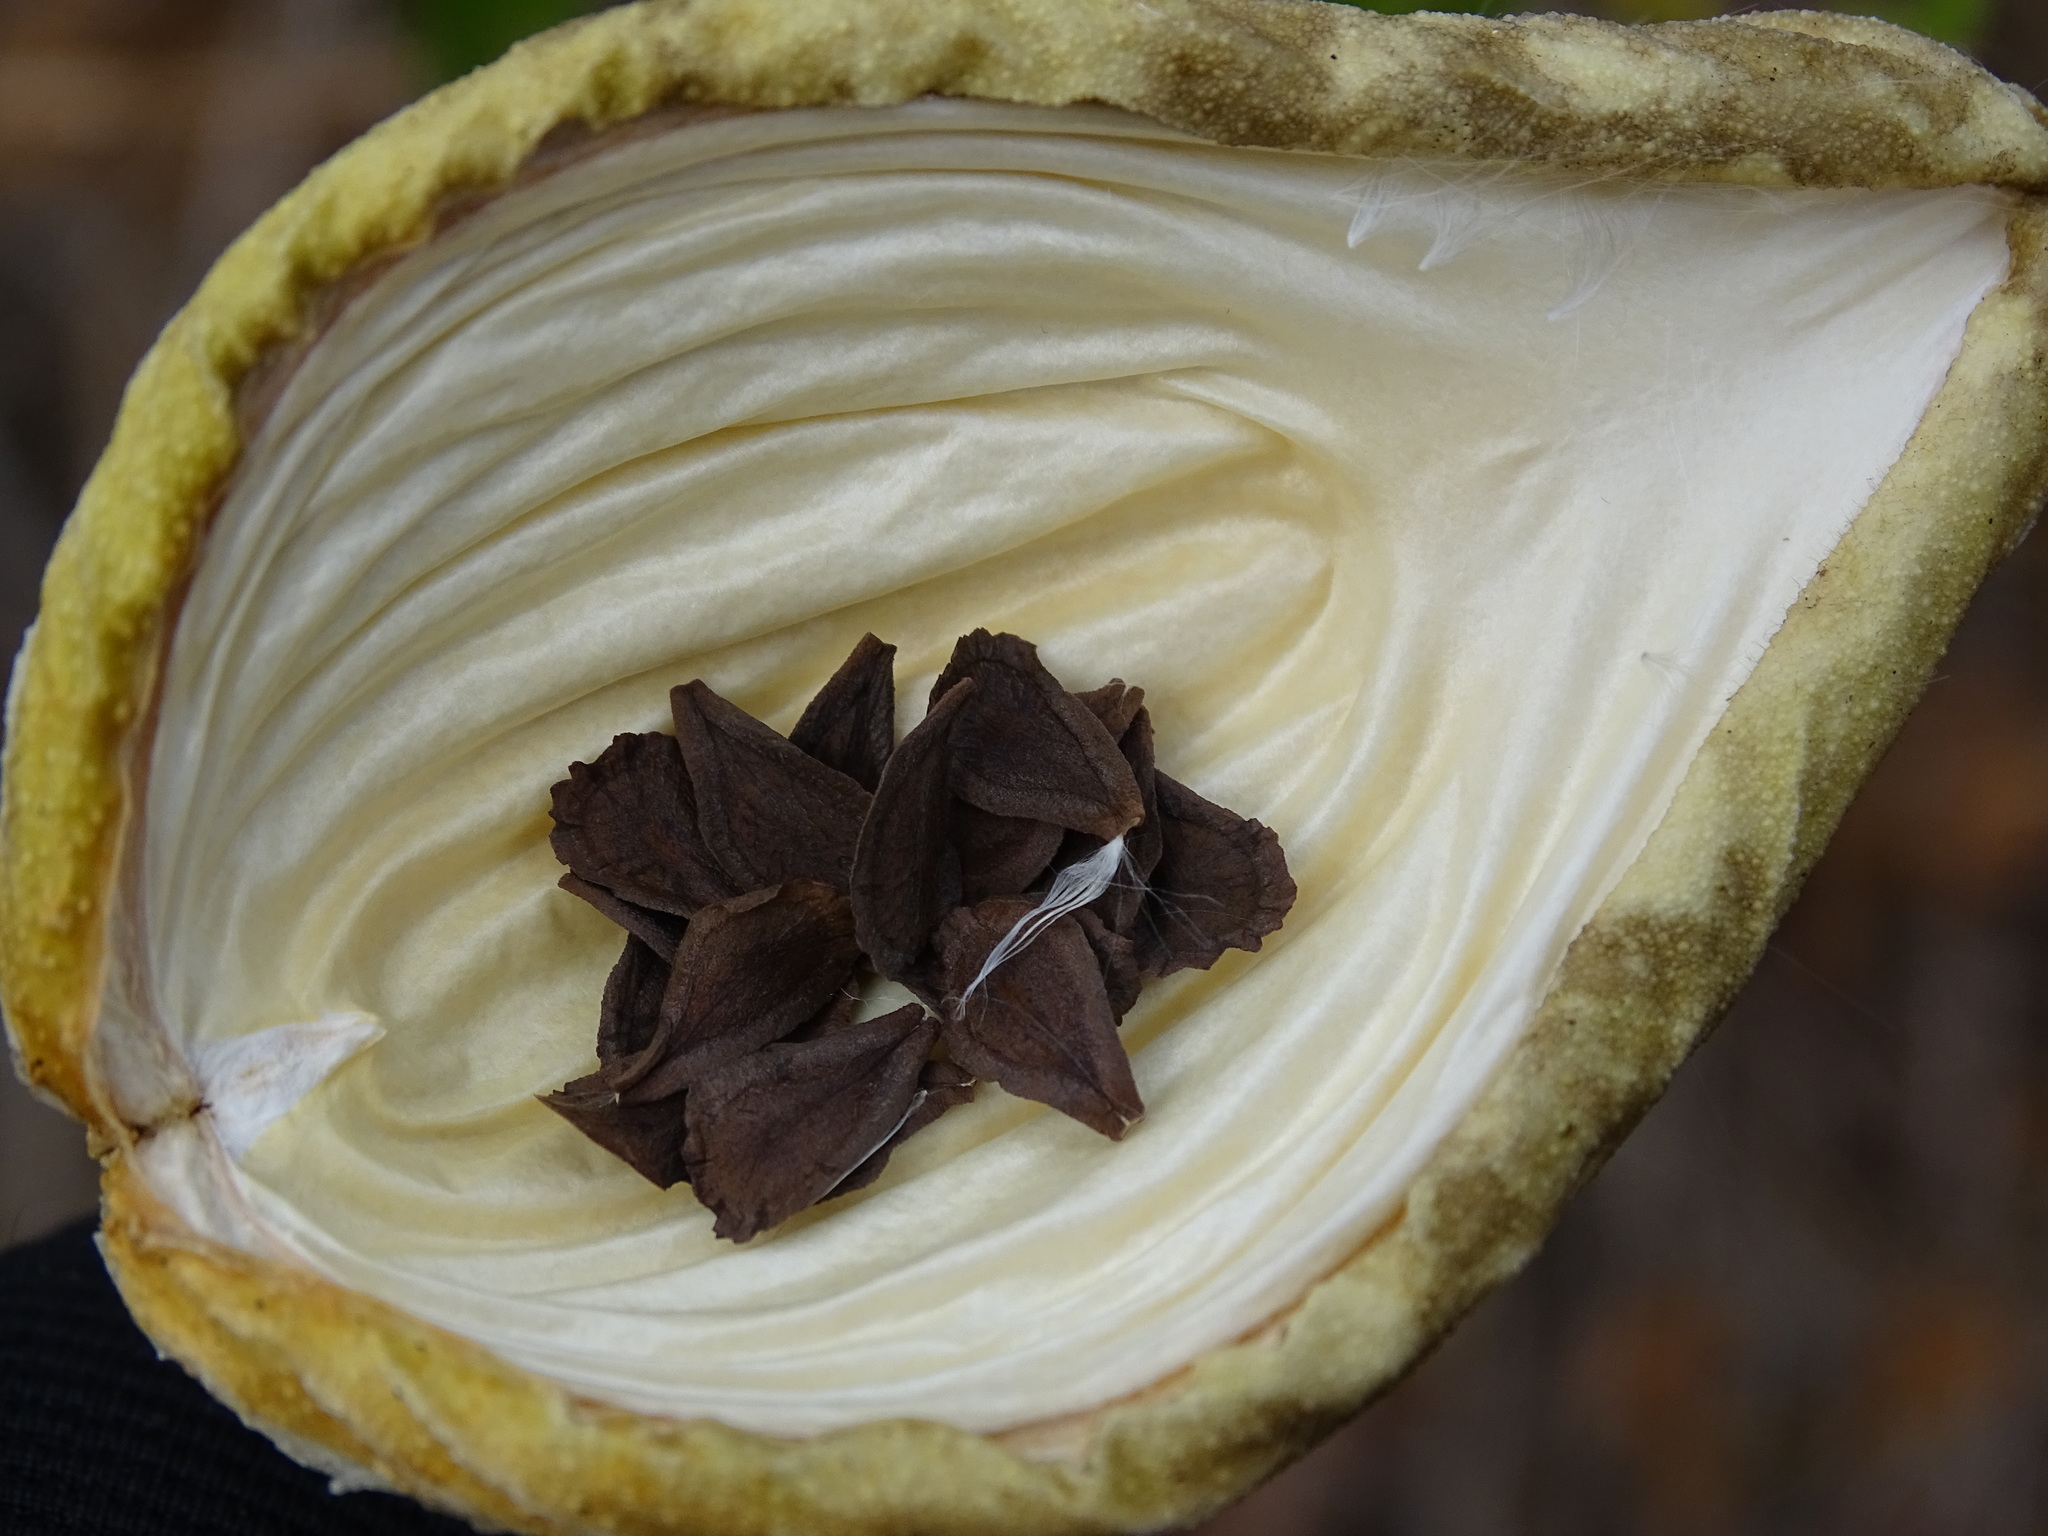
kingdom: Plantae
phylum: Tracheophyta
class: Magnoliopsida
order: Gentianales
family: Apocynaceae
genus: Gonolobus
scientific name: Gonolobus cteniophorus
